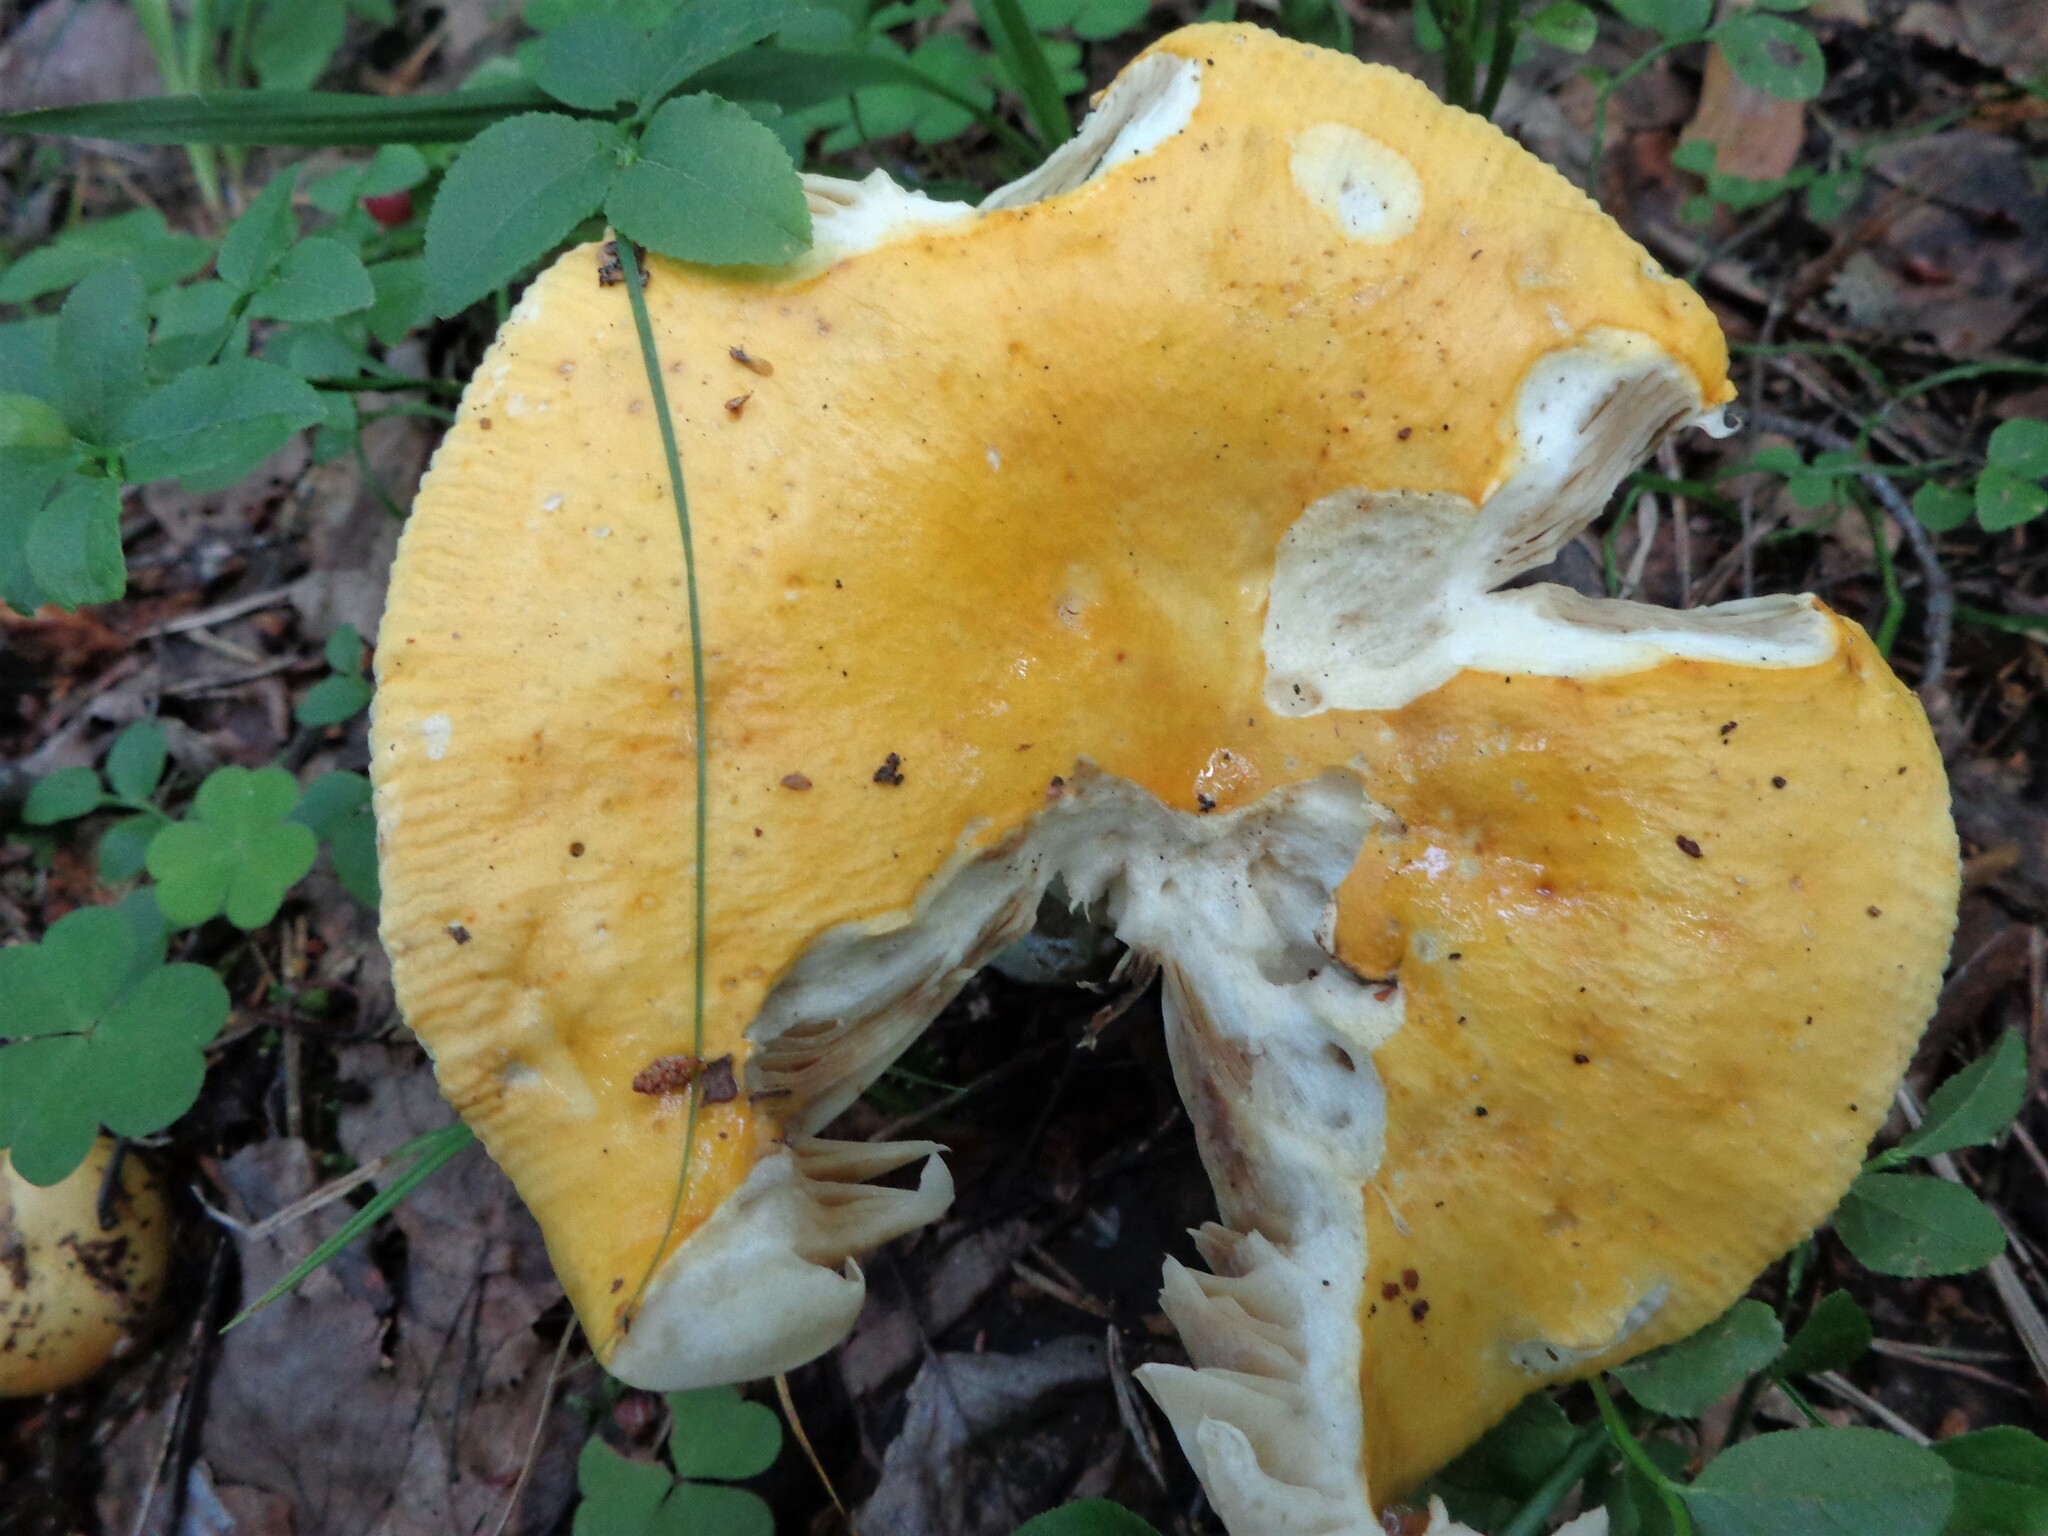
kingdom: Fungi
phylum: Basidiomycota
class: Agaricomycetes
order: Russulales
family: Russulaceae
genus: Russula
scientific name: Russula claroflava
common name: The yellow swamp brittlegill
